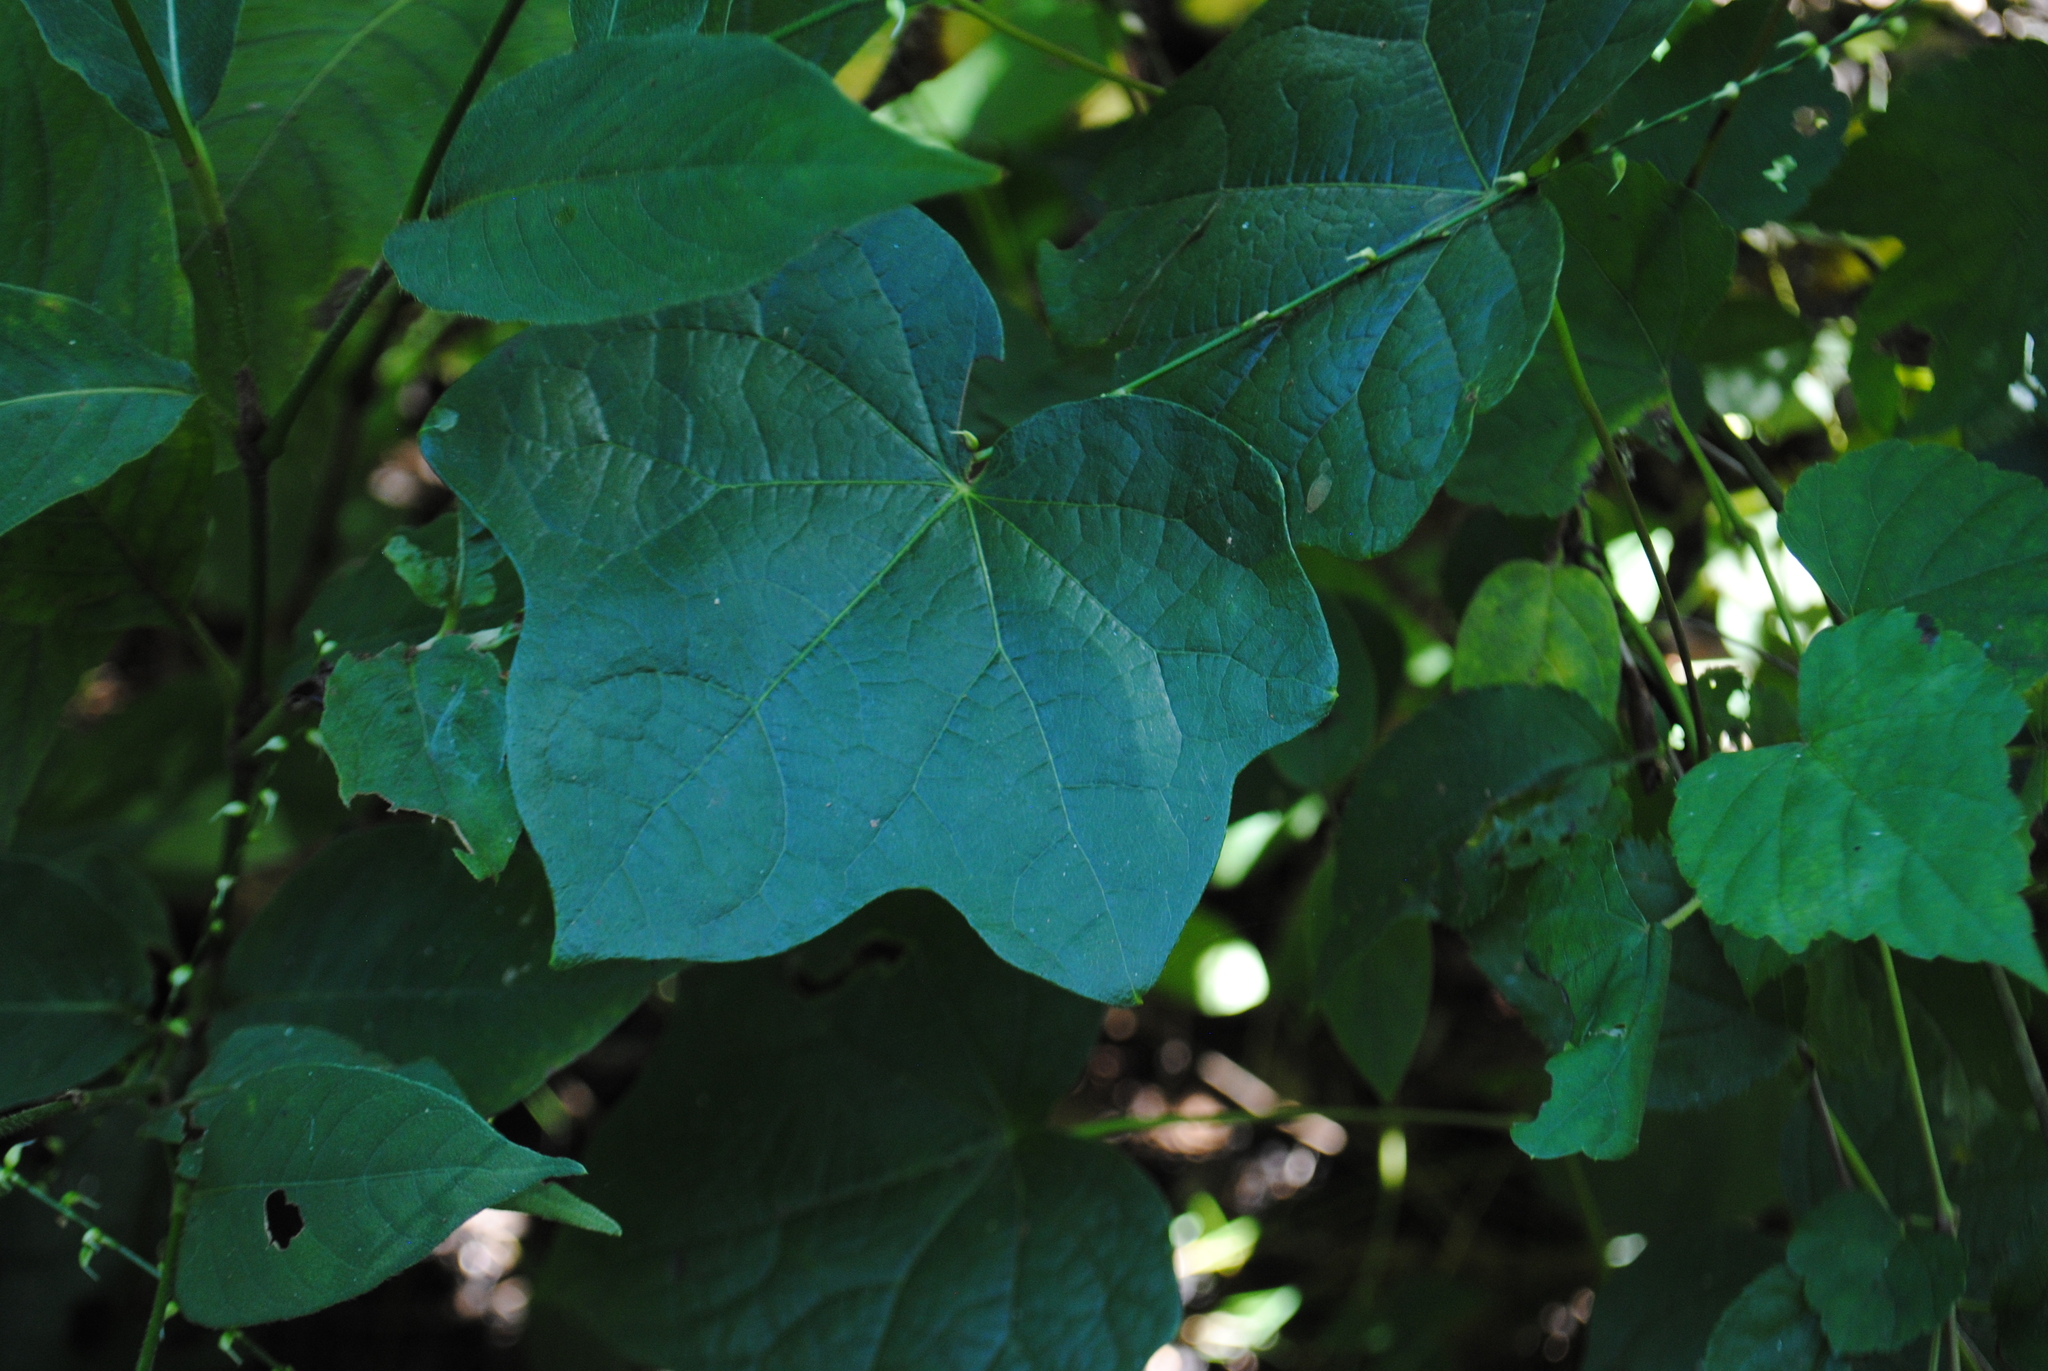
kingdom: Plantae
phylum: Tracheophyta
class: Magnoliopsida
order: Ranunculales
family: Menispermaceae
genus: Menispermum
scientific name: Menispermum canadense
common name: Moonseed
